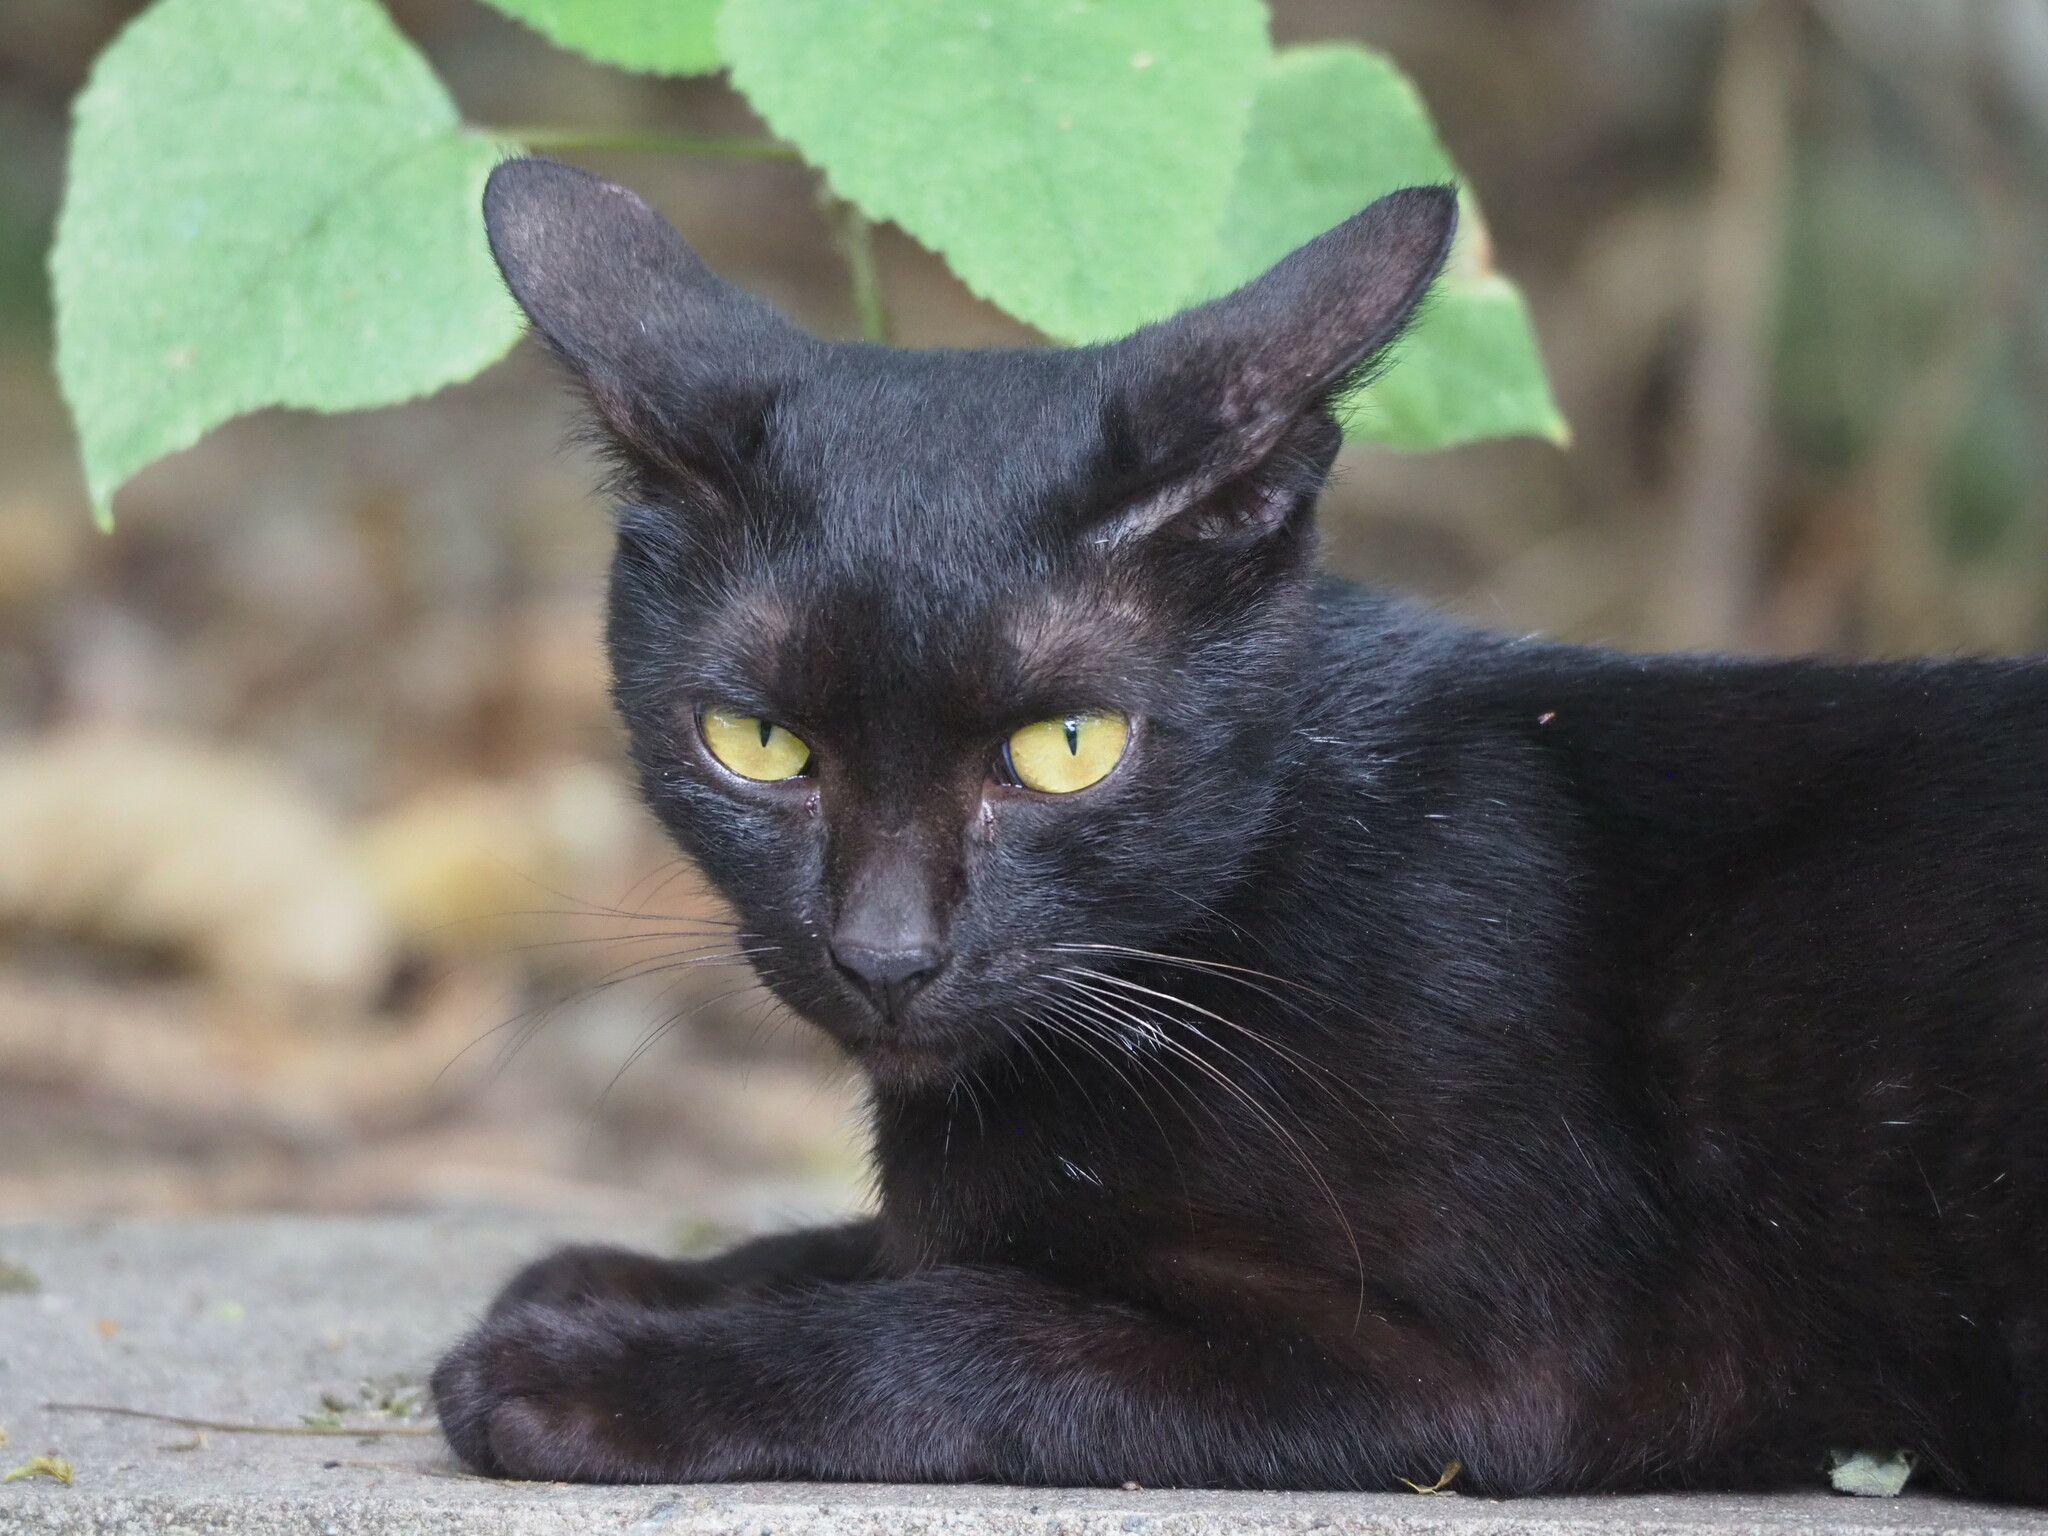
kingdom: Animalia
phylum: Chordata
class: Mammalia
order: Carnivora
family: Felidae
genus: Felis
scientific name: Felis catus
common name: Domestic cat
